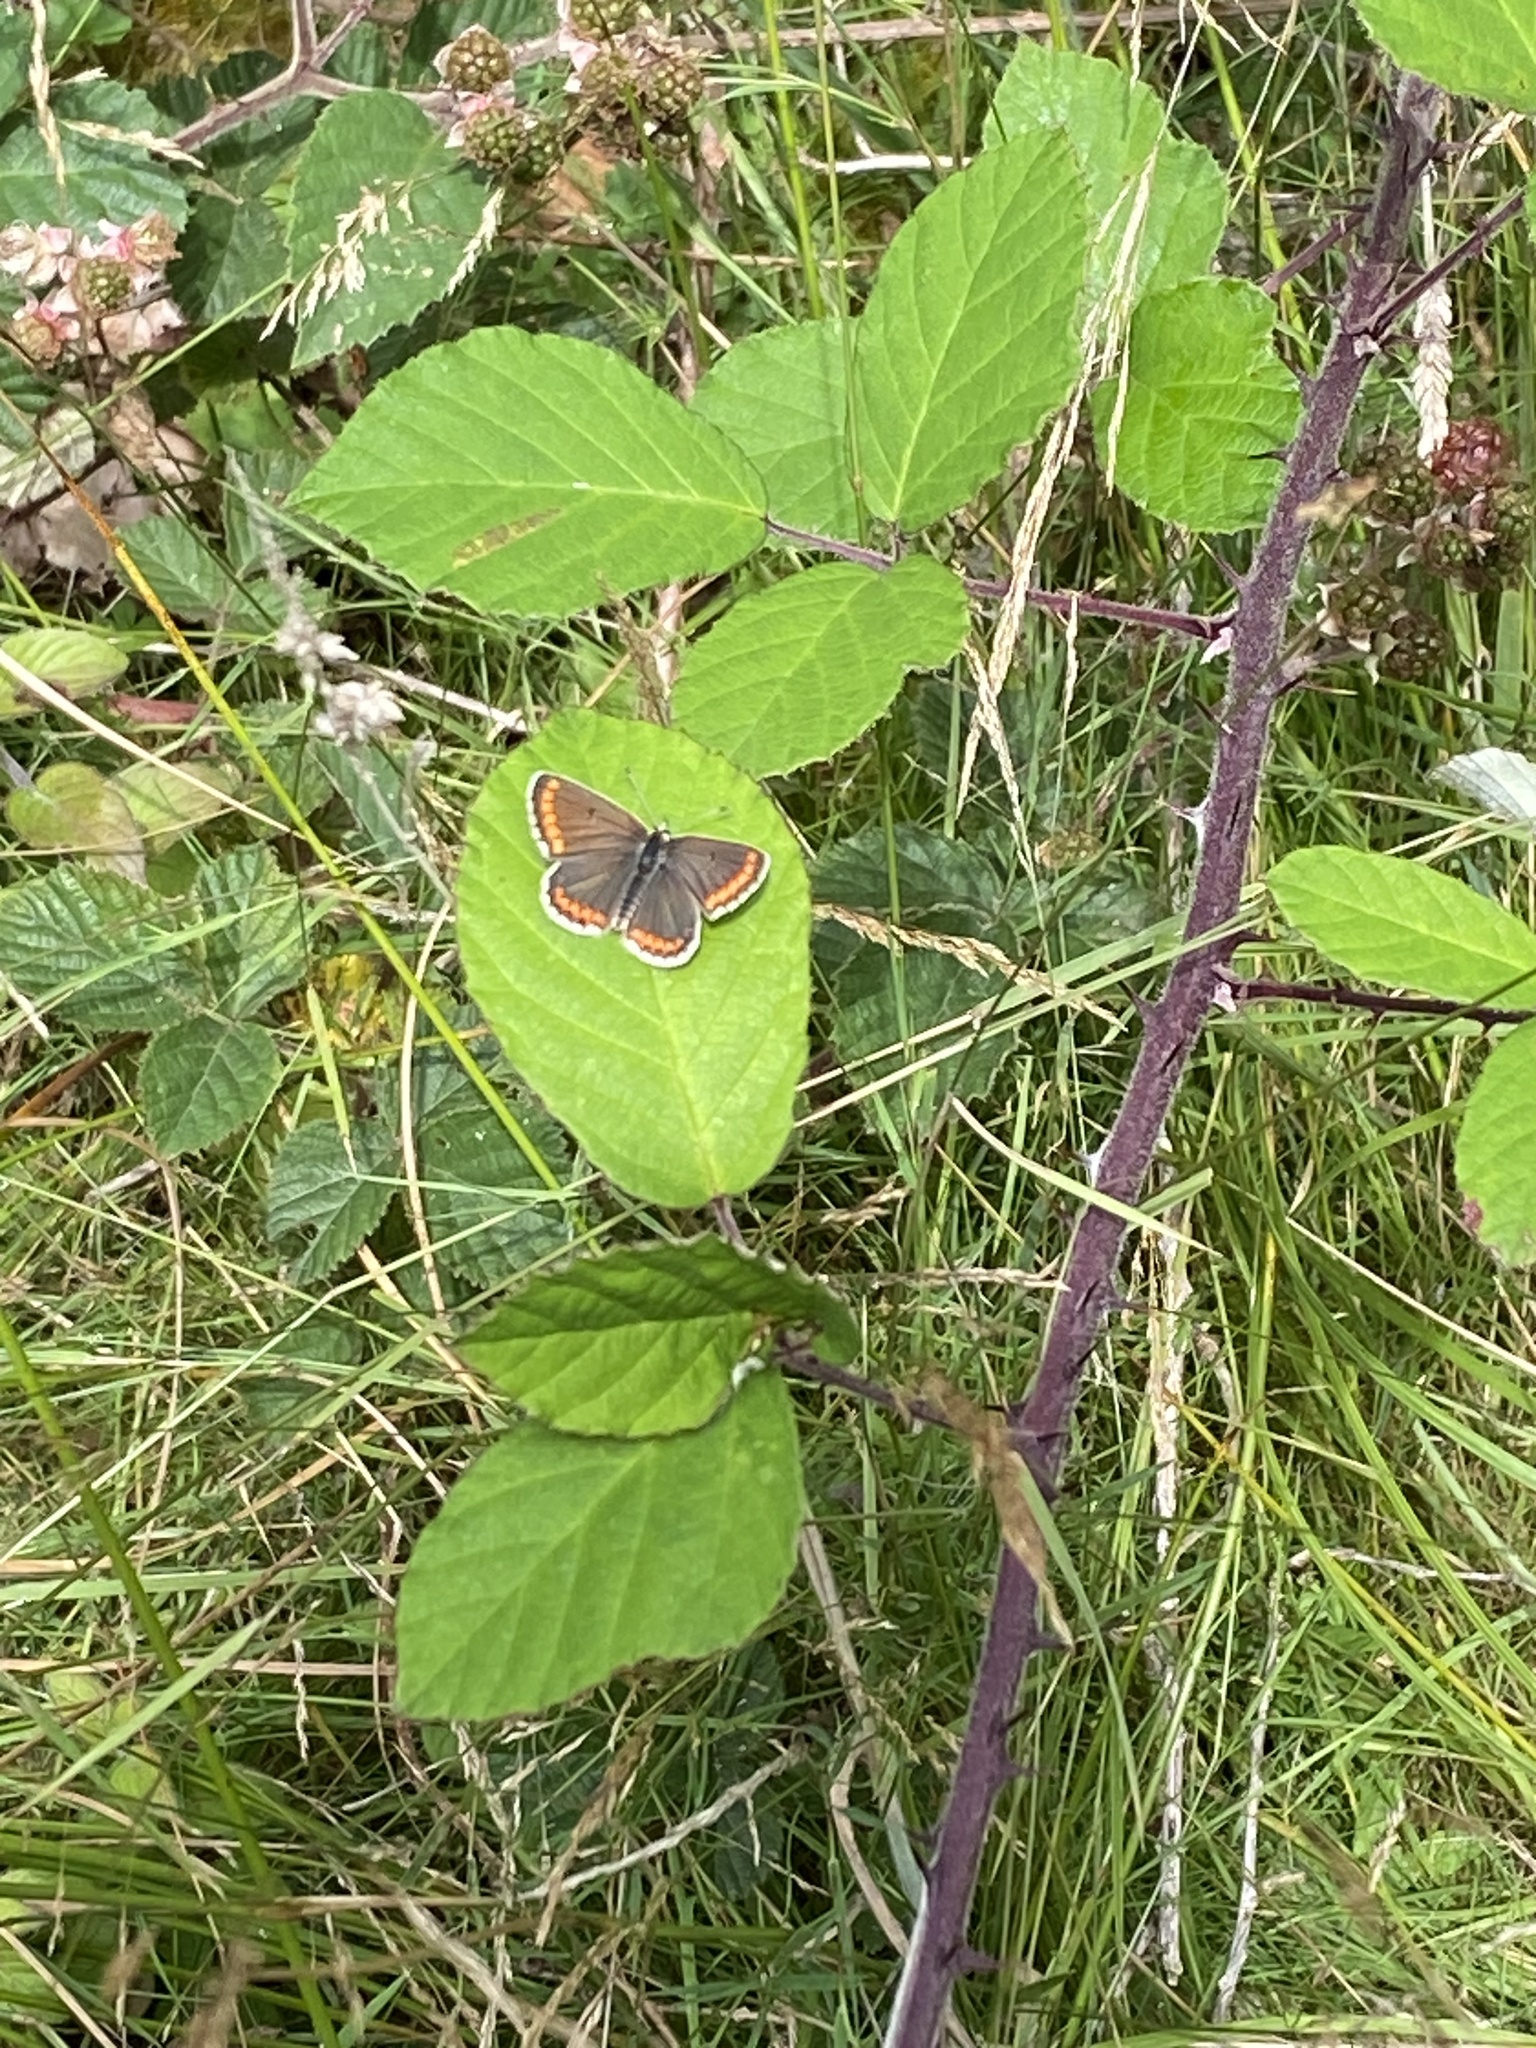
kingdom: Animalia
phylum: Arthropoda
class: Insecta
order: Lepidoptera
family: Lycaenidae
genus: Aricia
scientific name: Aricia agestis
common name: Brown argus
